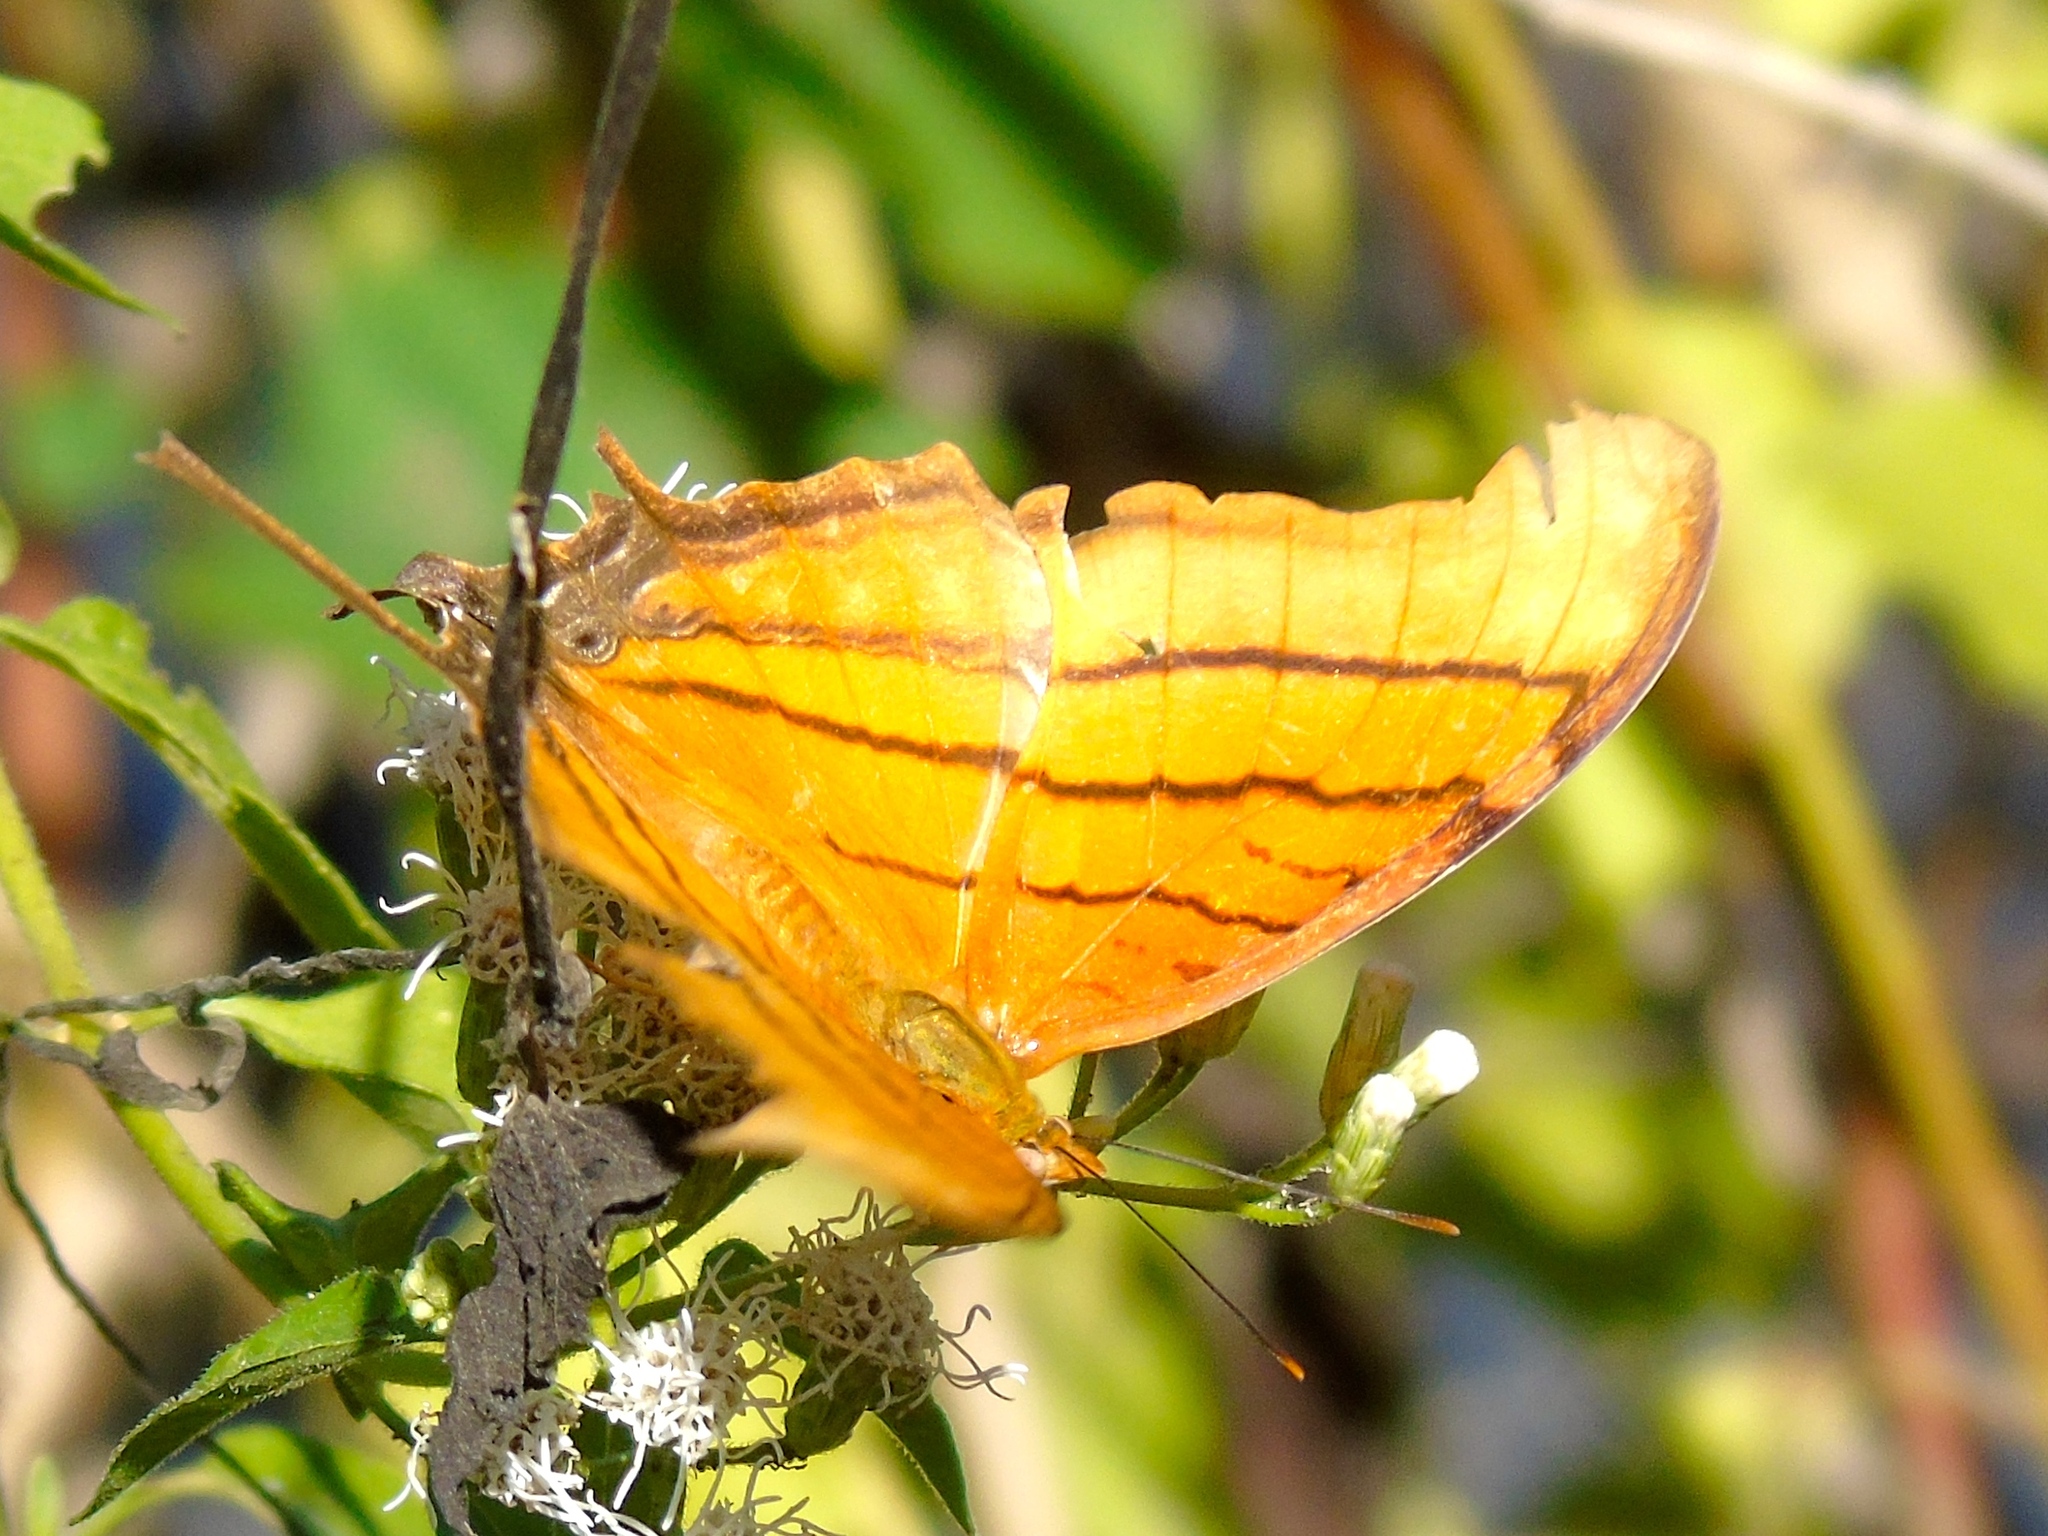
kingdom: Animalia
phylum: Arthropoda
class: Insecta
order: Lepidoptera
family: Nymphalidae
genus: Marpesia
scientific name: Marpesia petreus
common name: Red dagger wing
